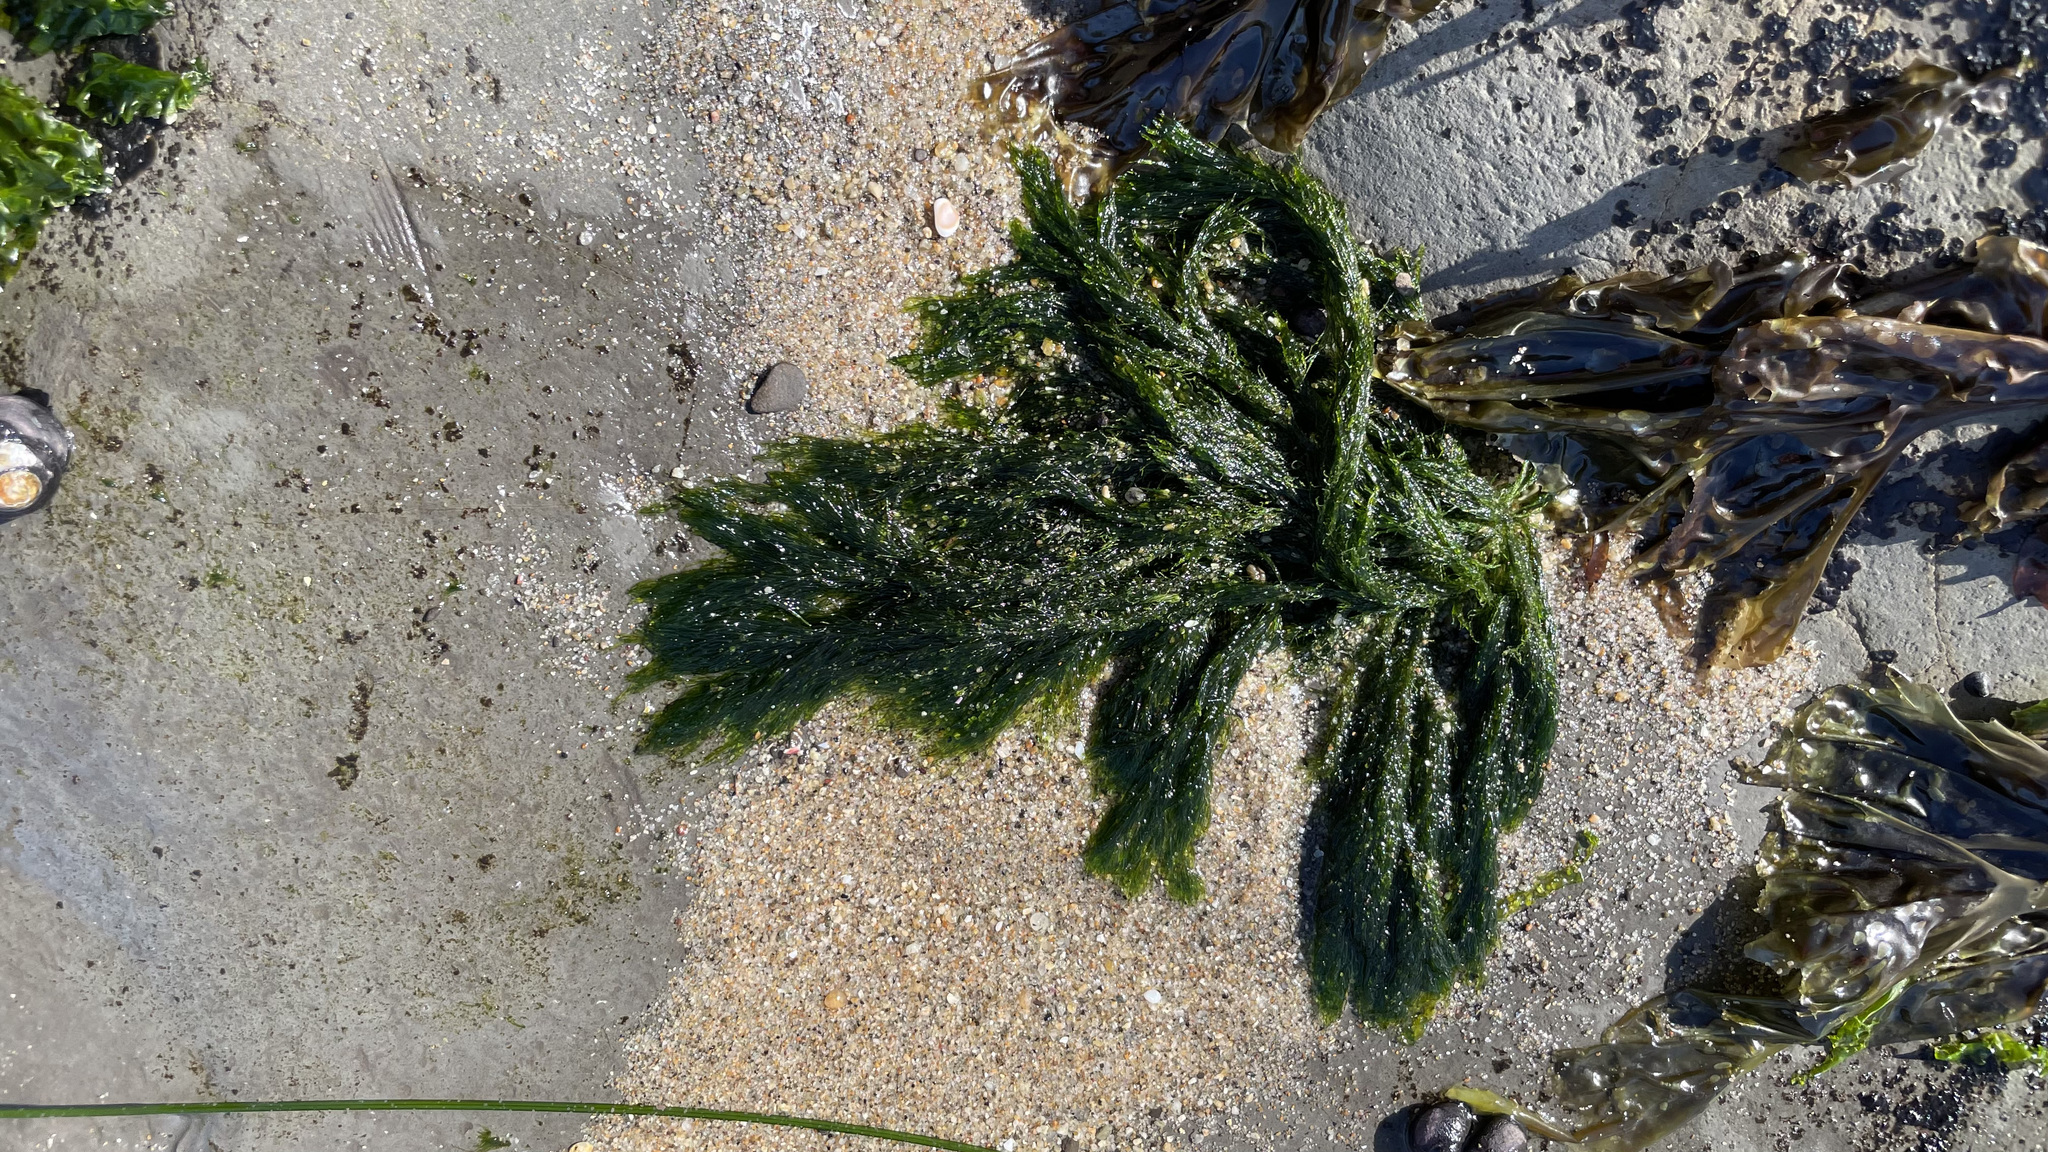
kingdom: Plantae
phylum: Chlorophyta
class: Ulvophyceae
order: Ulotrichales
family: Ulotrichaceae
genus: Acrosiphonia
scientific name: Acrosiphonia
